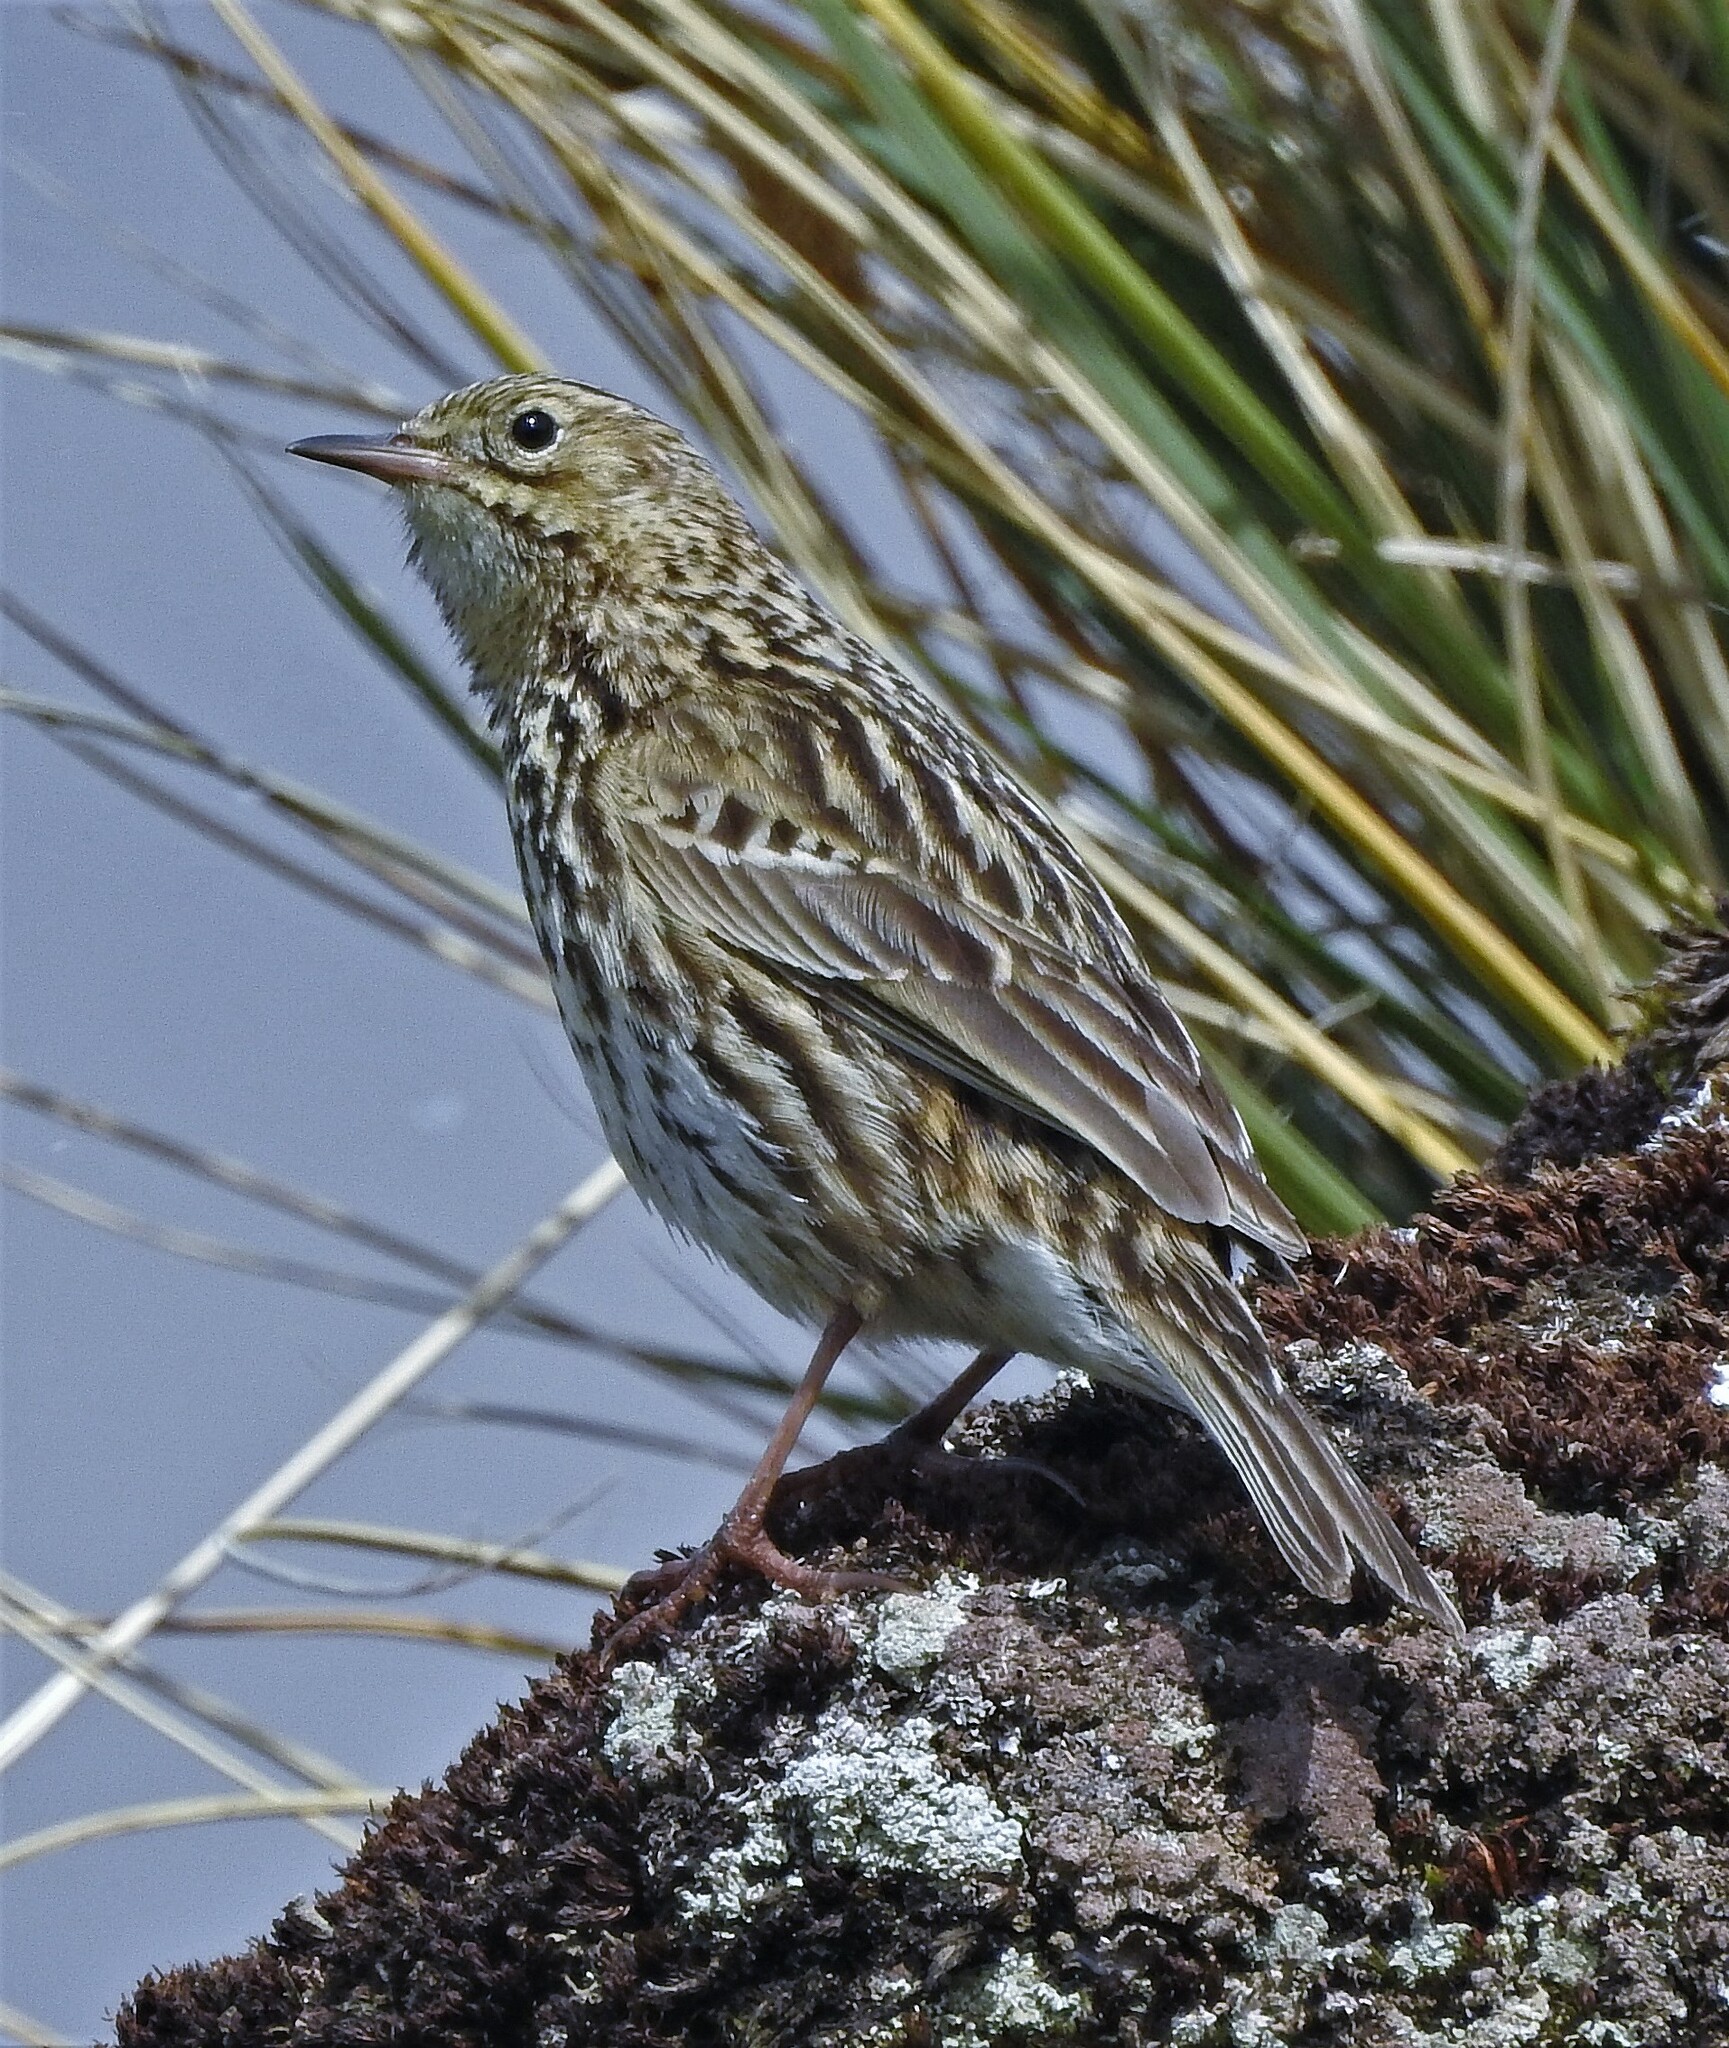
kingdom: Animalia
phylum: Chordata
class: Aves
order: Passeriformes
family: Motacillidae
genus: Anthus
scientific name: Anthus antarcticus
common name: South georgia pipit
